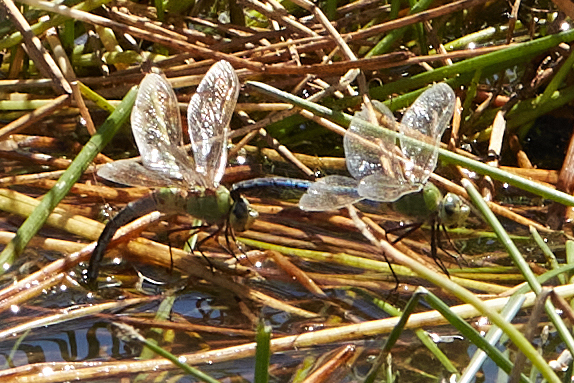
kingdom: Animalia
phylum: Arthropoda
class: Insecta
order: Odonata
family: Aeshnidae
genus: Anax
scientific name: Anax junius
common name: Common green darner
